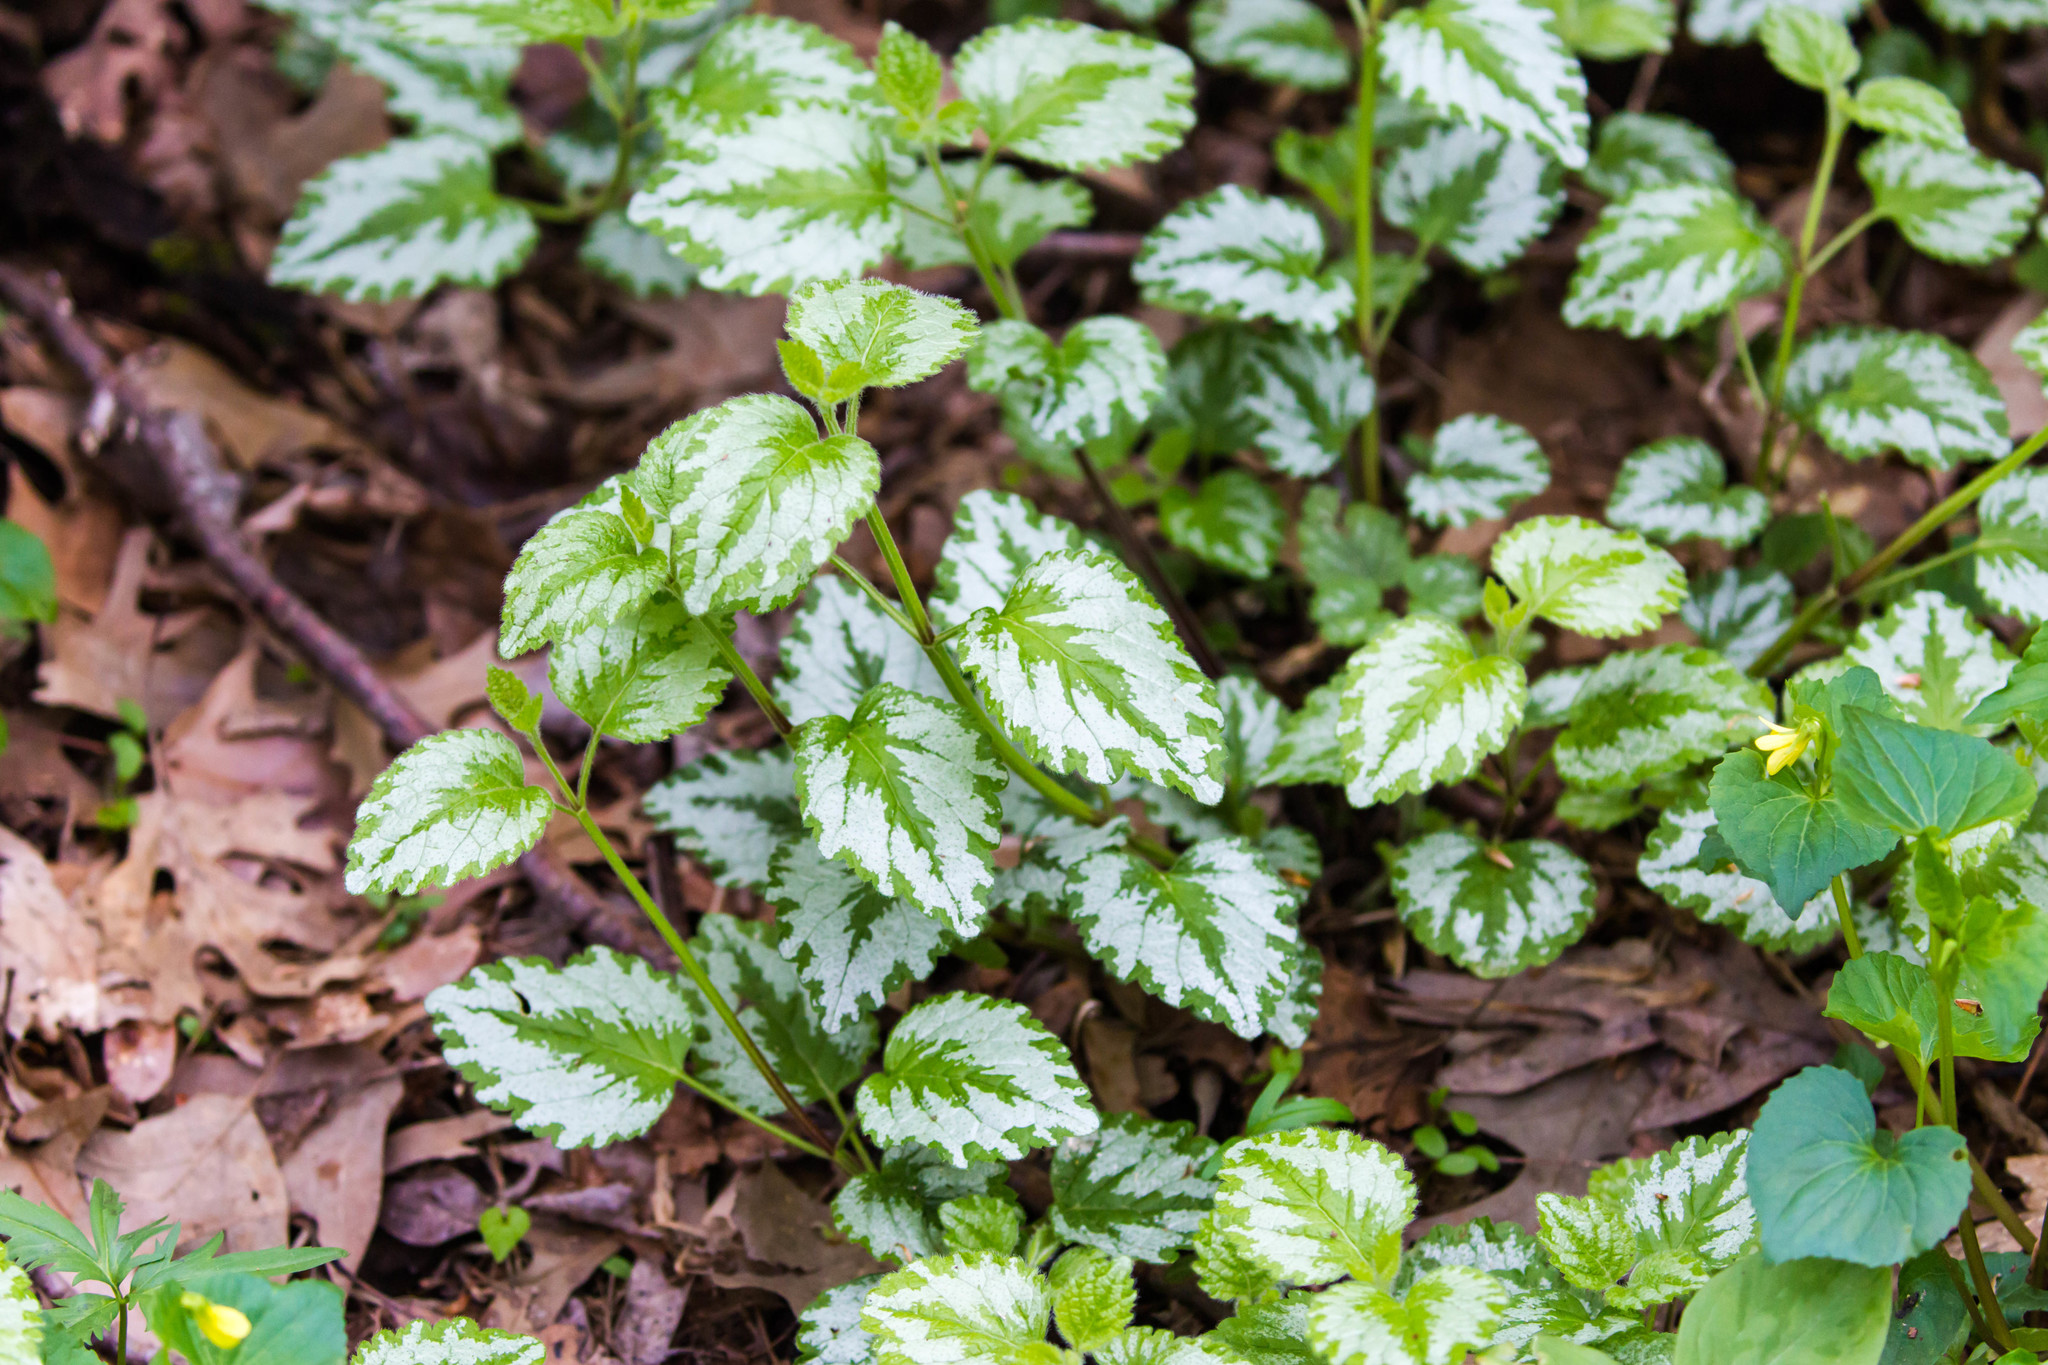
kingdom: Plantae
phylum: Tracheophyta
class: Magnoliopsida
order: Lamiales
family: Lamiaceae
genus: Lamium
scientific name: Lamium galeobdolon
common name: Yellow archangel
